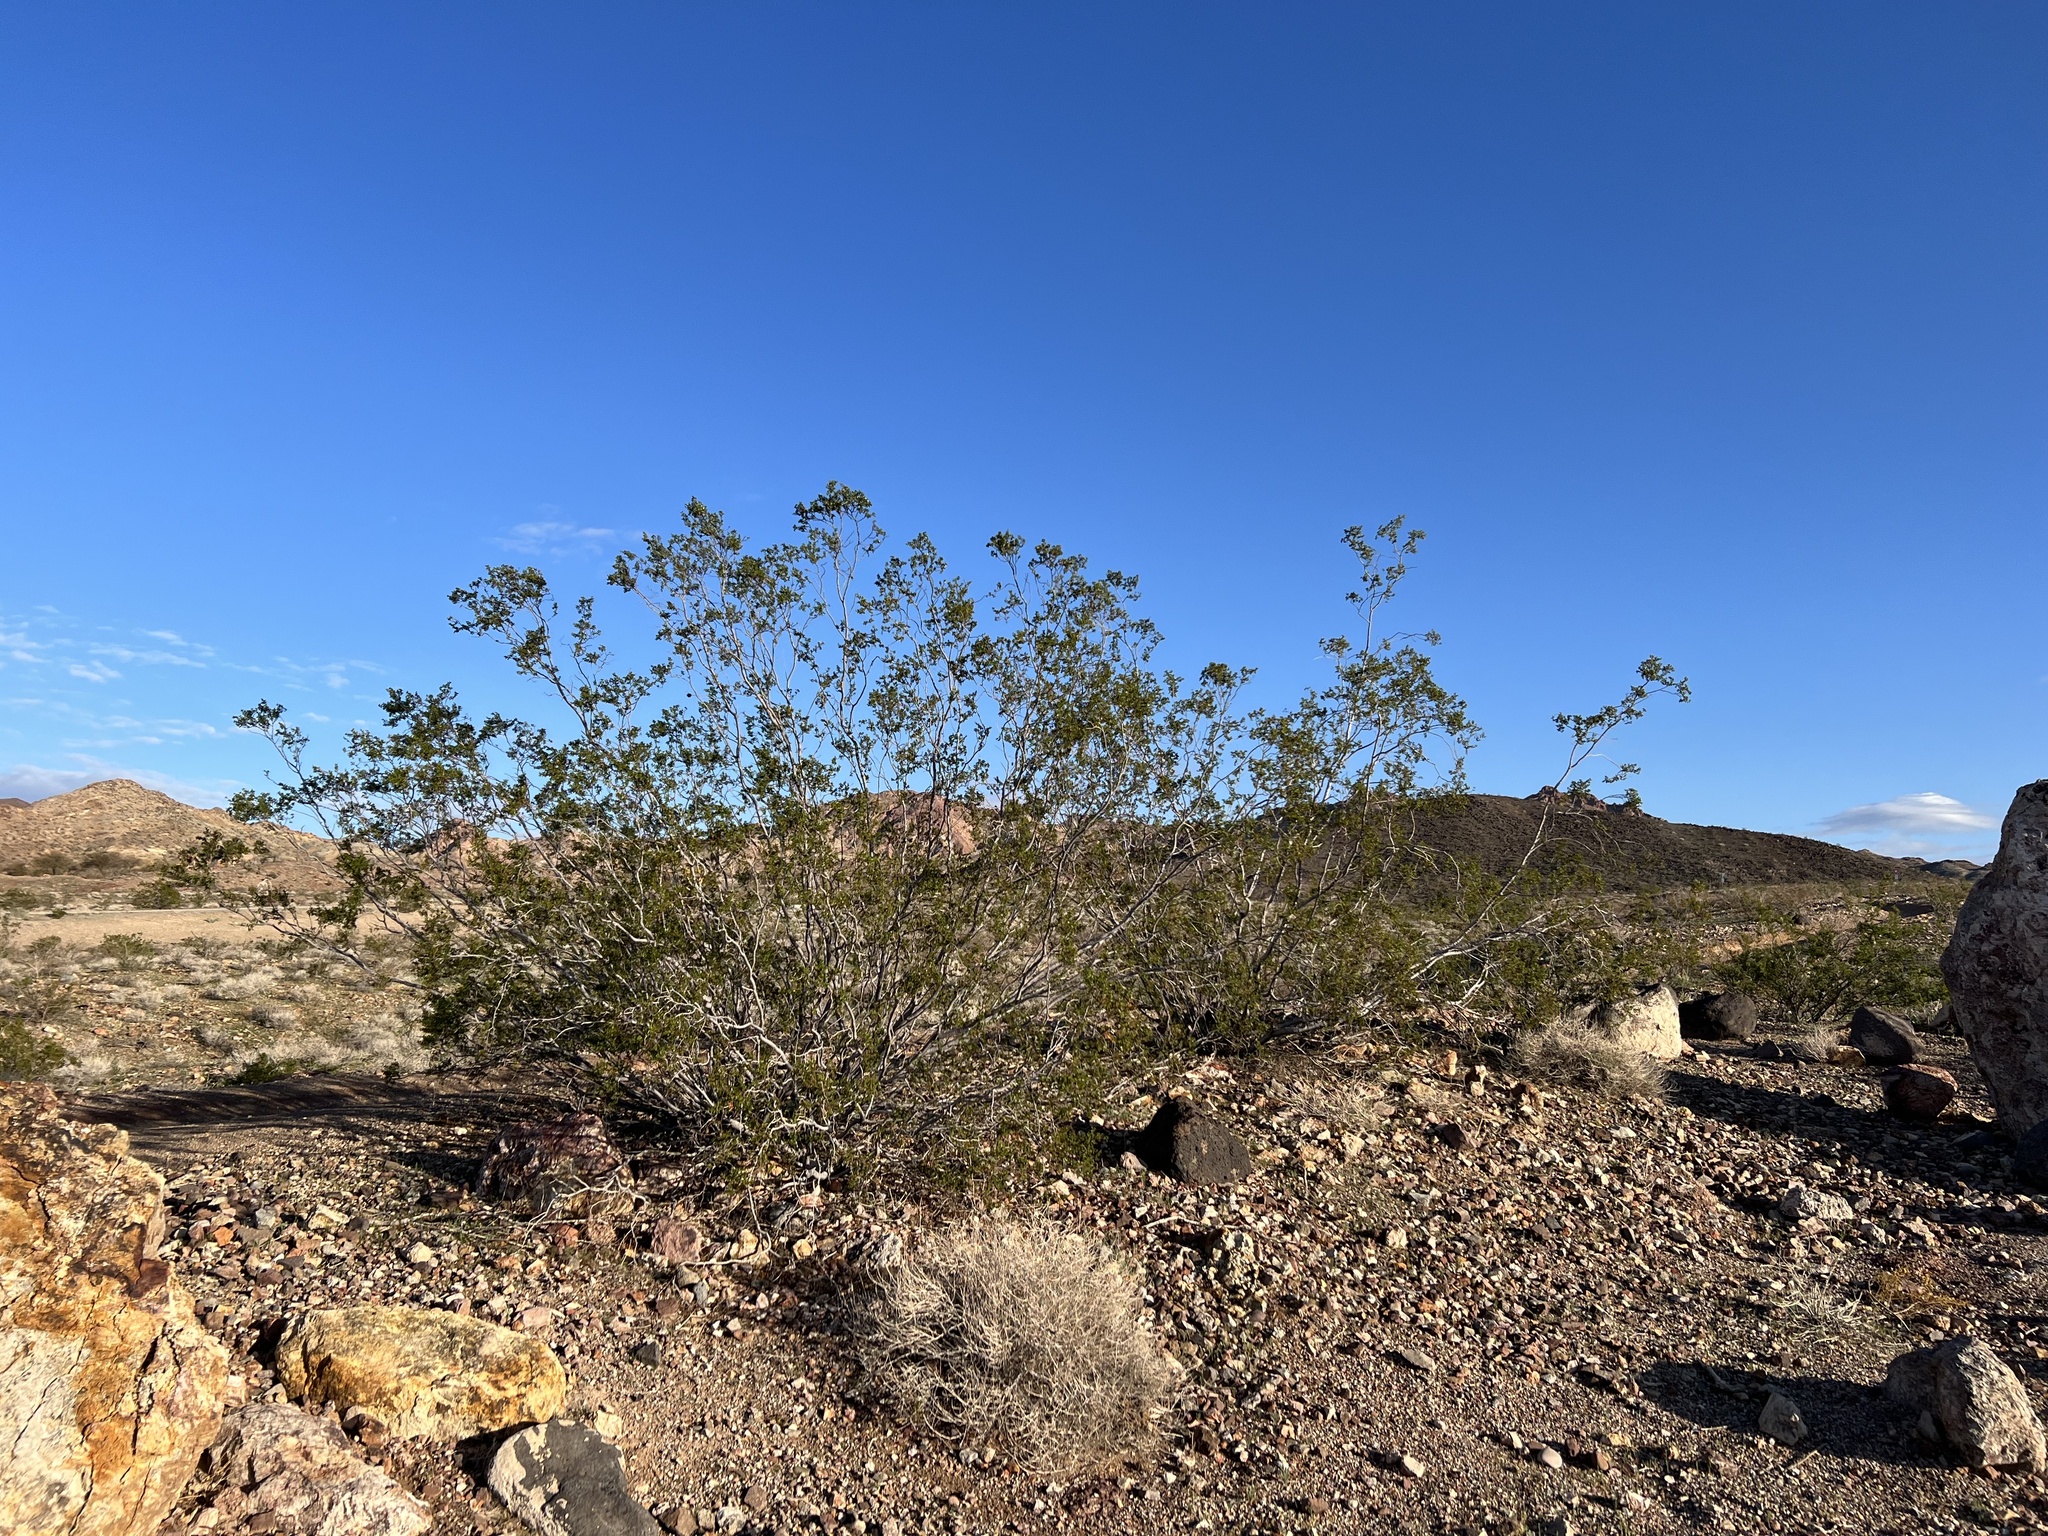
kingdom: Plantae
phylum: Tracheophyta
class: Magnoliopsida
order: Zygophyllales
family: Zygophyllaceae
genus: Larrea
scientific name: Larrea tridentata
